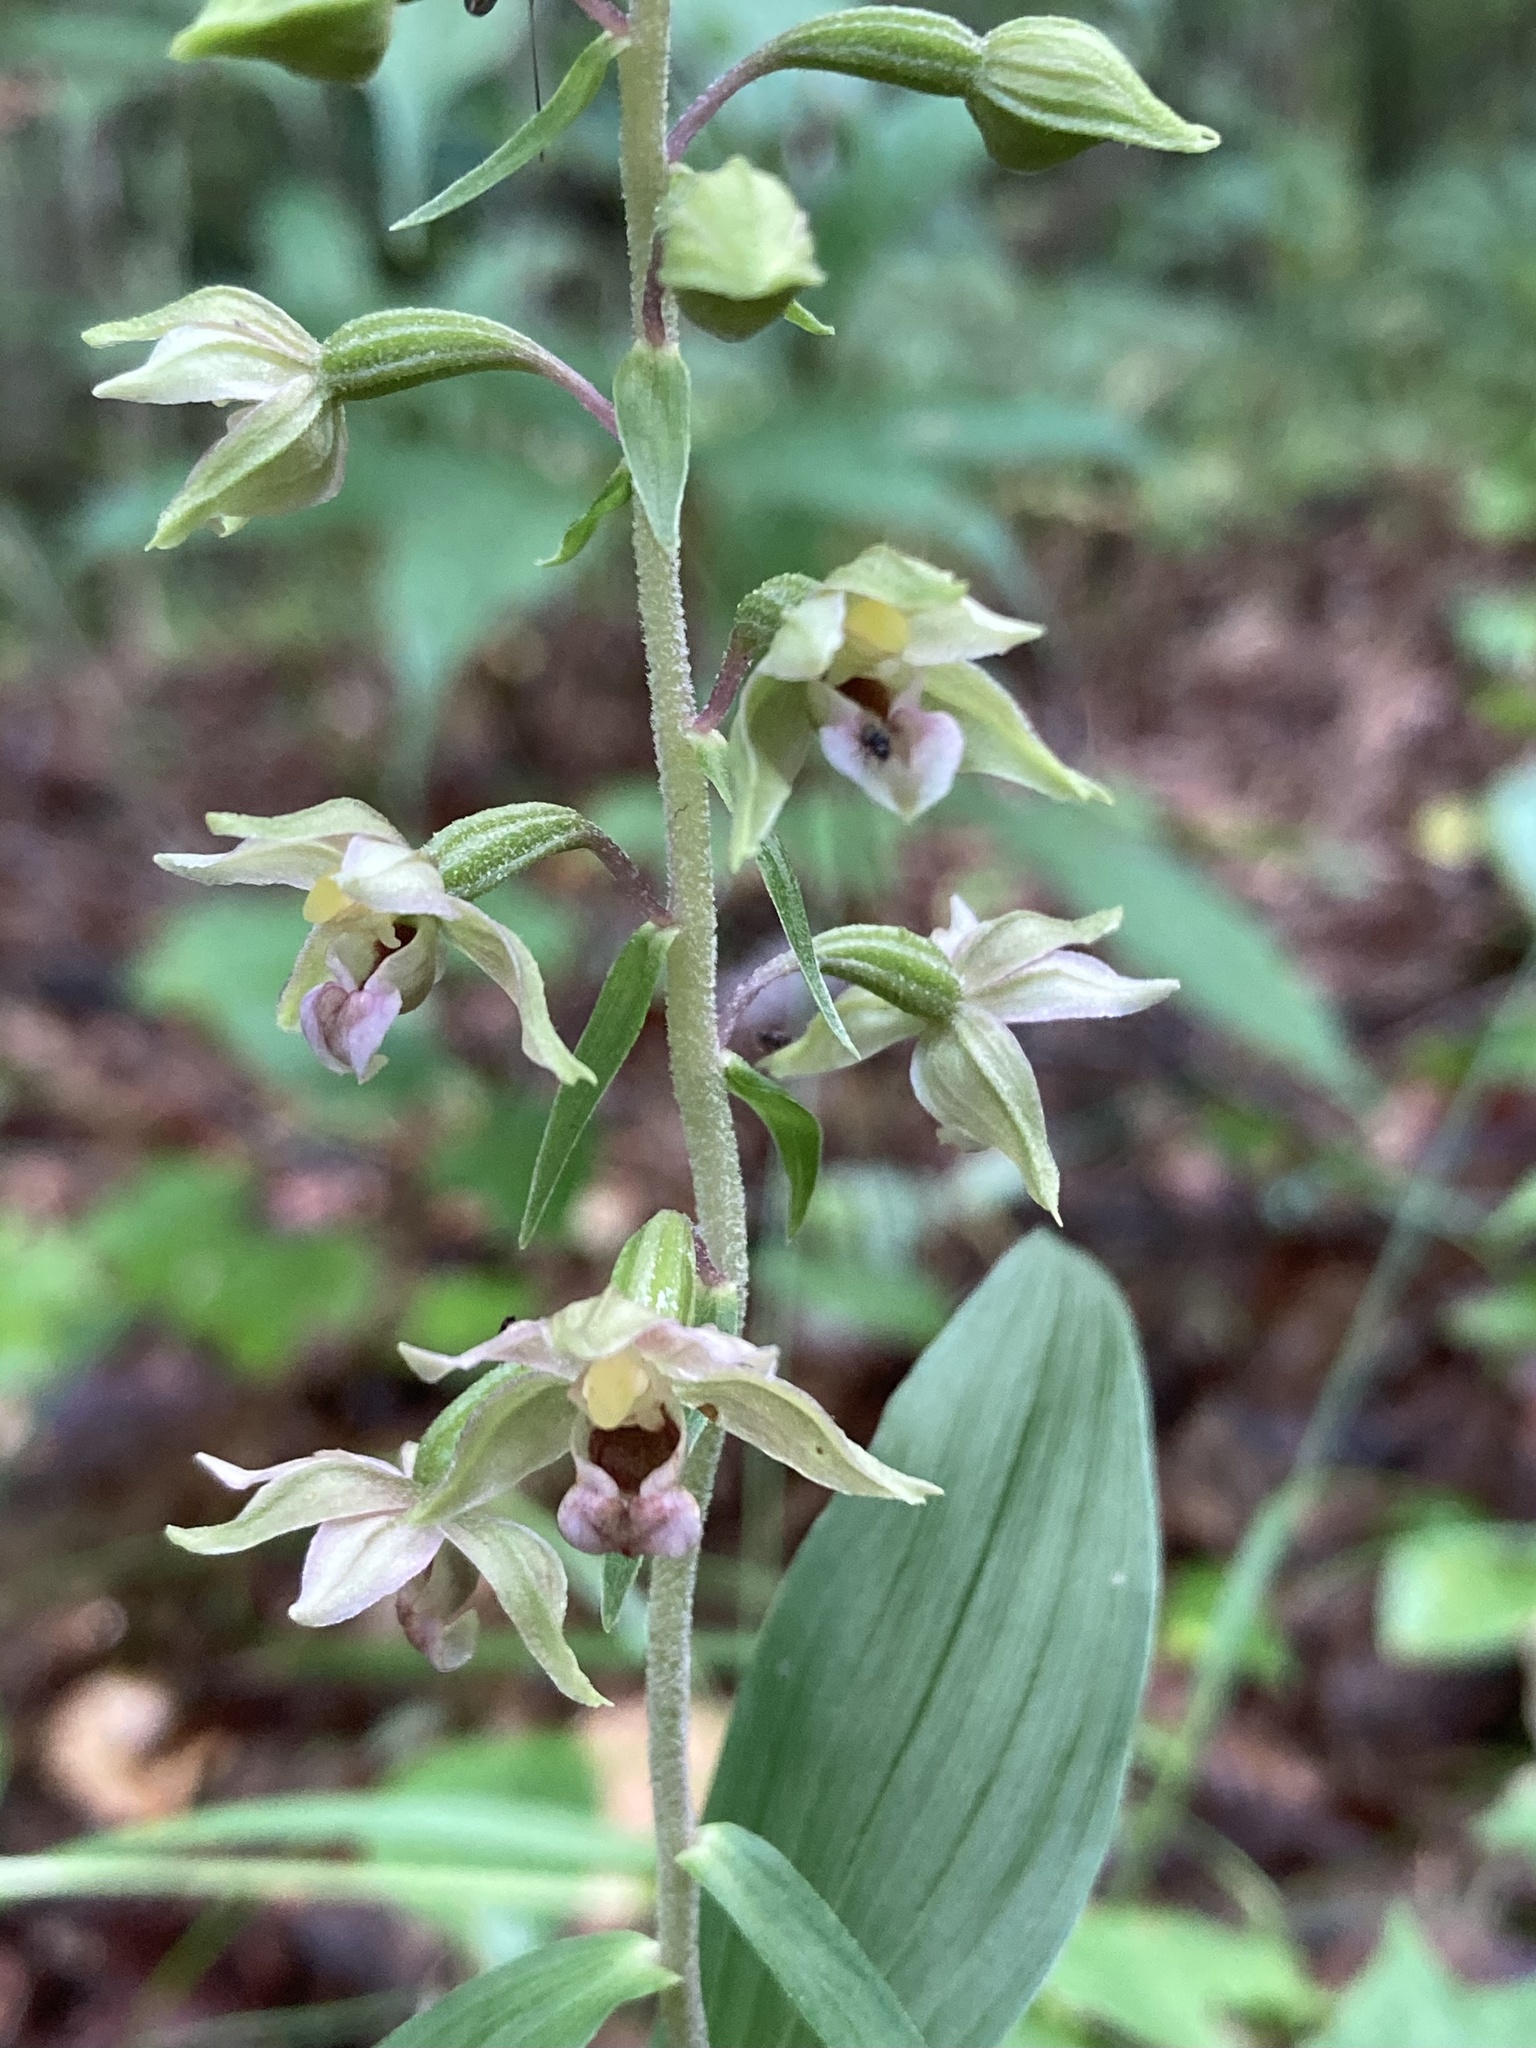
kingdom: Plantae
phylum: Tracheophyta
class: Liliopsida
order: Asparagales
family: Orchidaceae
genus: Epipactis
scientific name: Epipactis helleborine
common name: Broad-leaved helleborine
